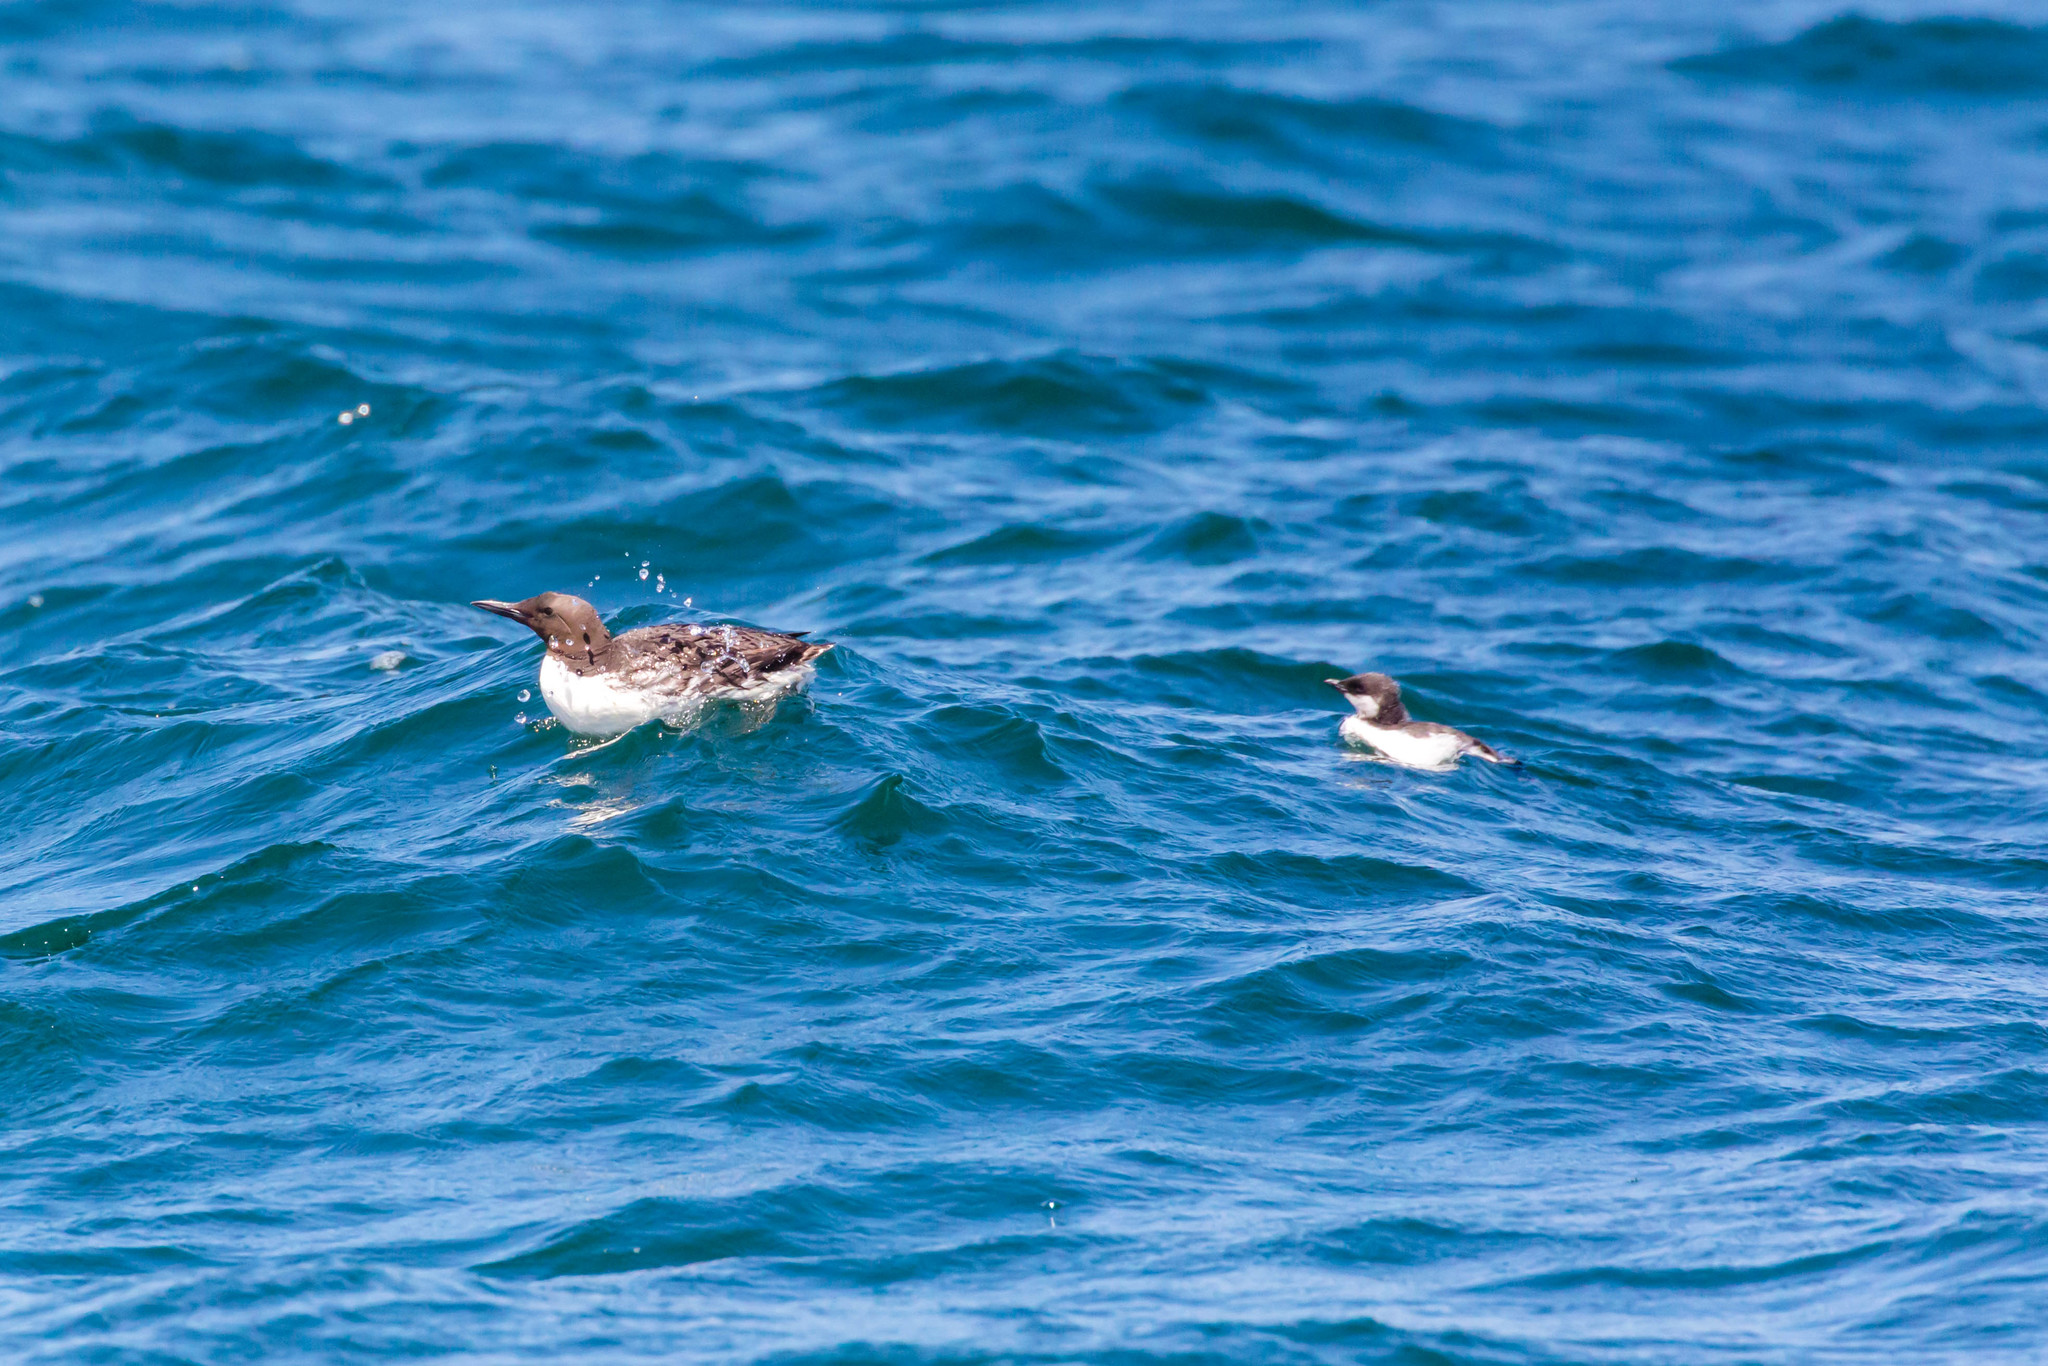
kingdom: Animalia
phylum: Chordata
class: Aves
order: Charadriiformes
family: Alcidae
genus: Uria
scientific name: Uria aalge
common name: Common murre
